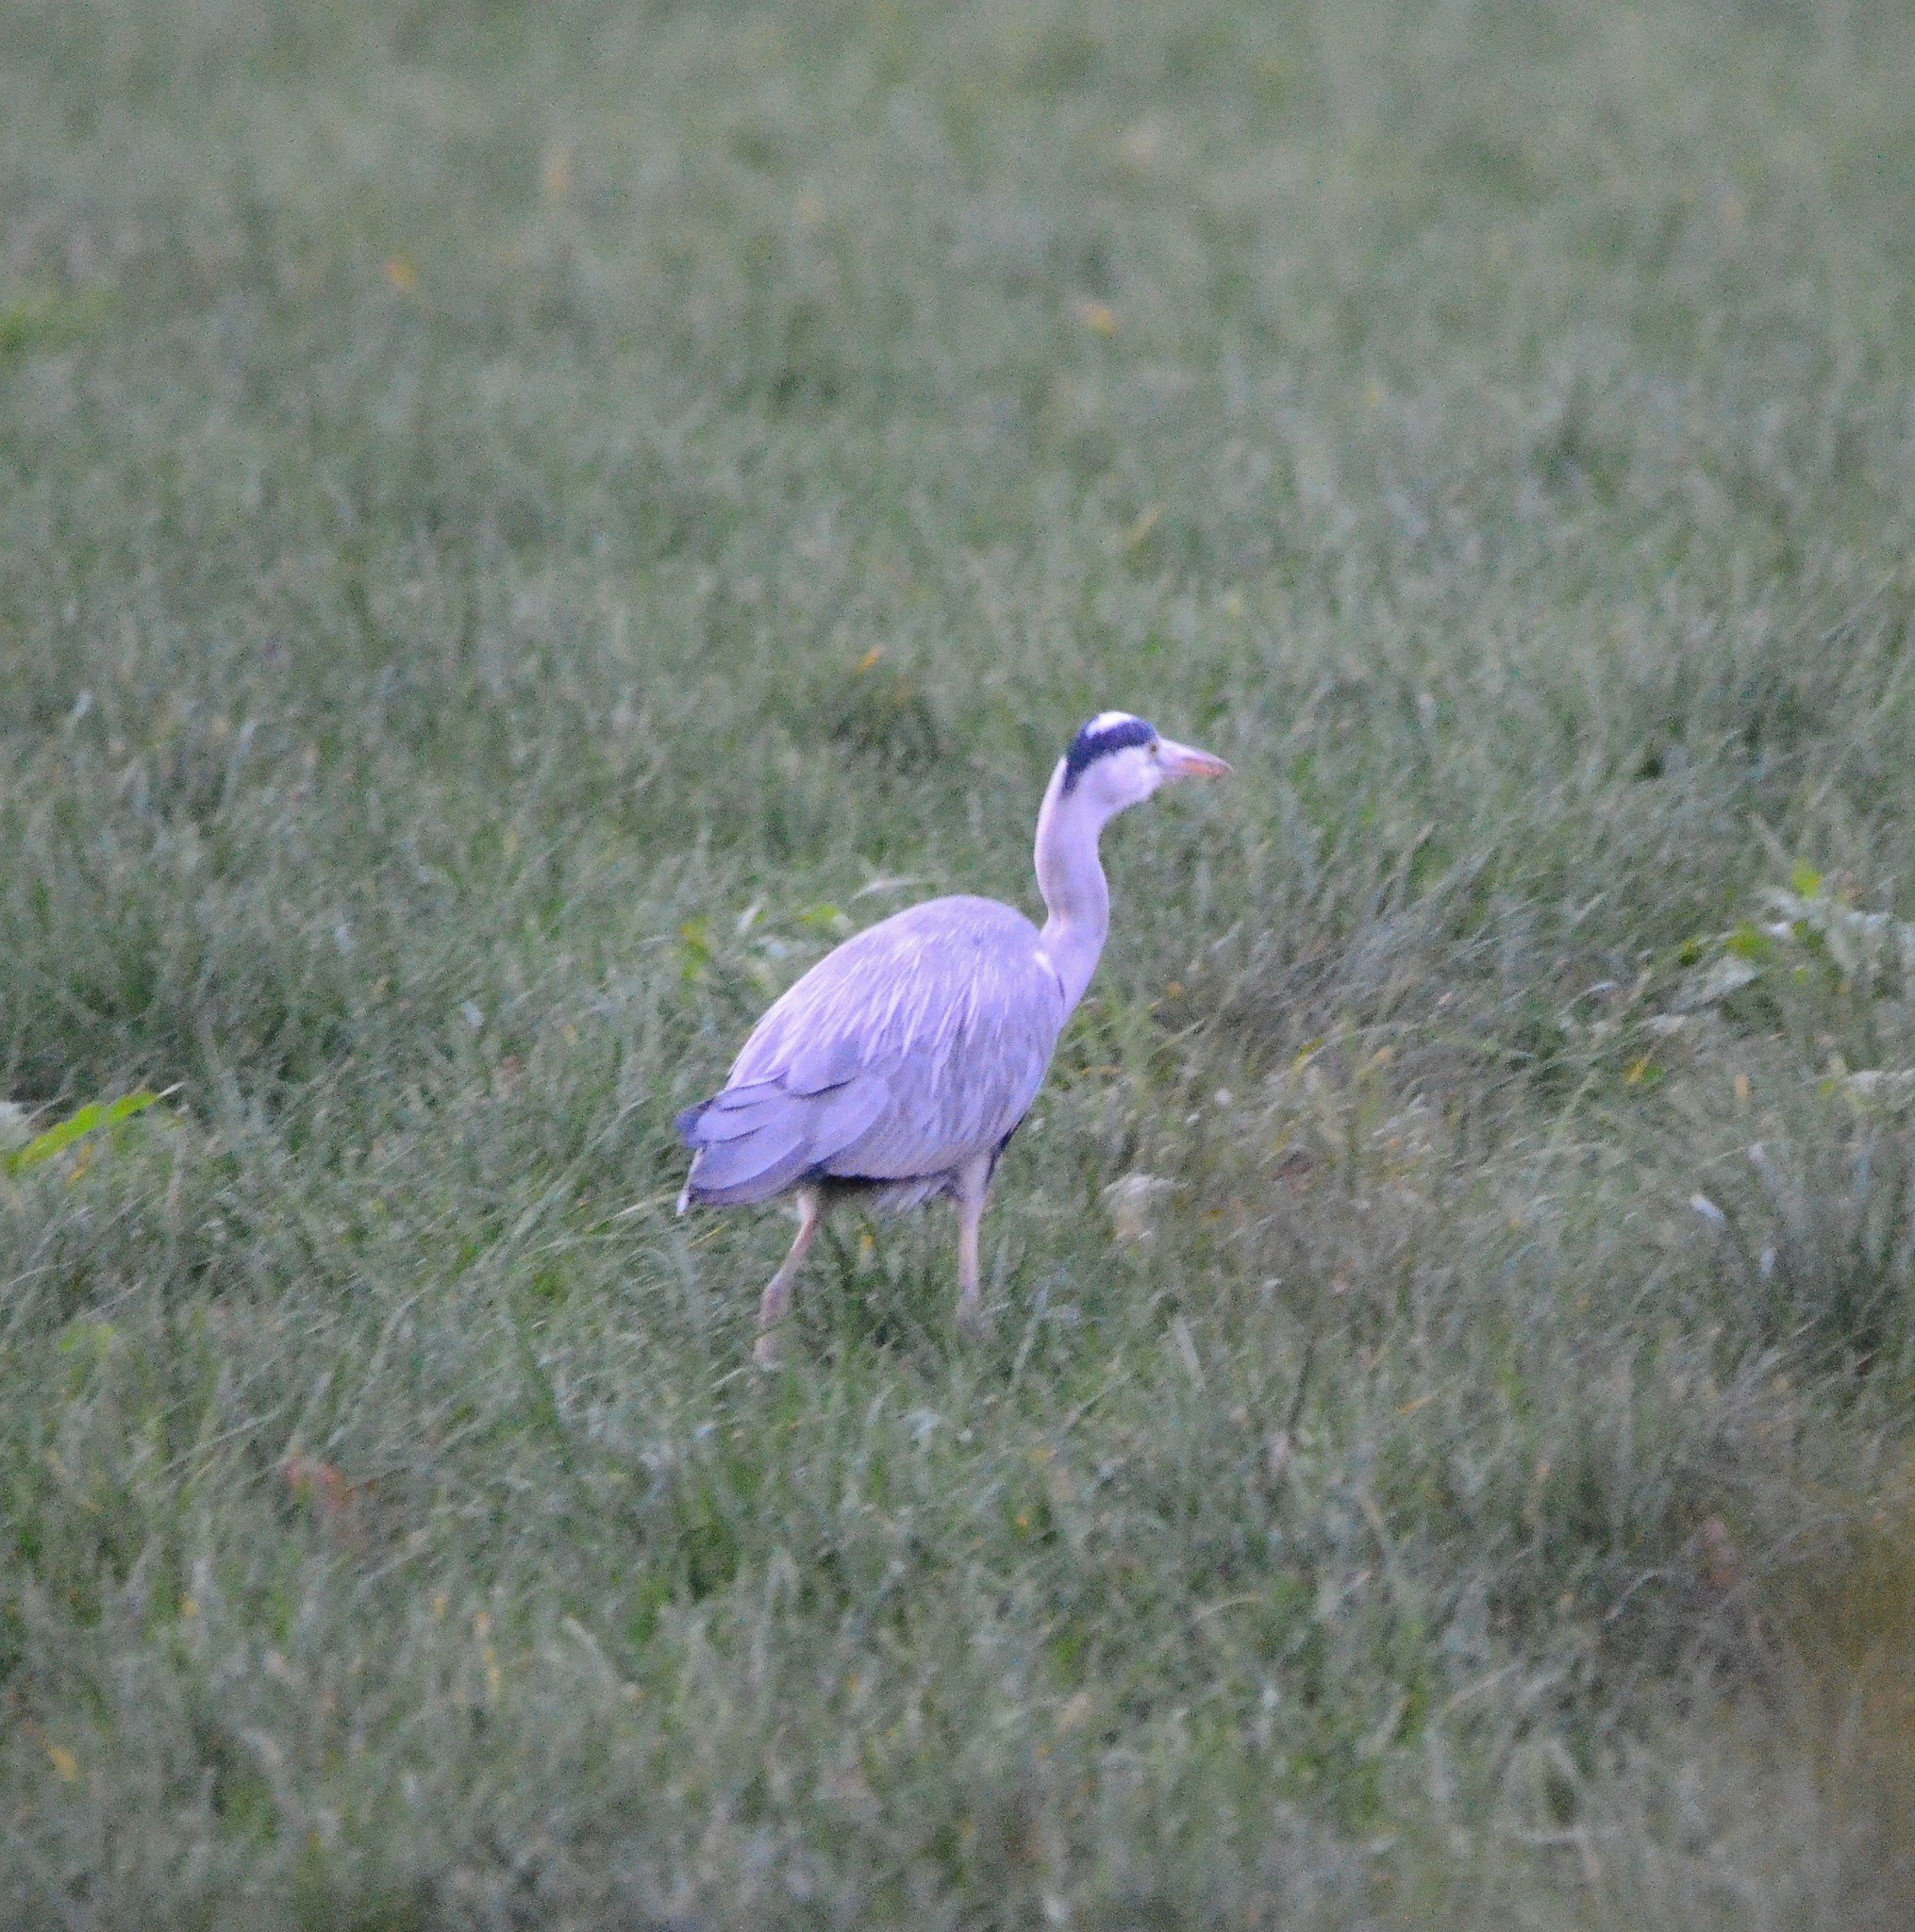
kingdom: Animalia
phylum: Chordata
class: Aves
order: Pelecaniformes
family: Ardeidae
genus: Ardea
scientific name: Ardea cinerea
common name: Grey heron
